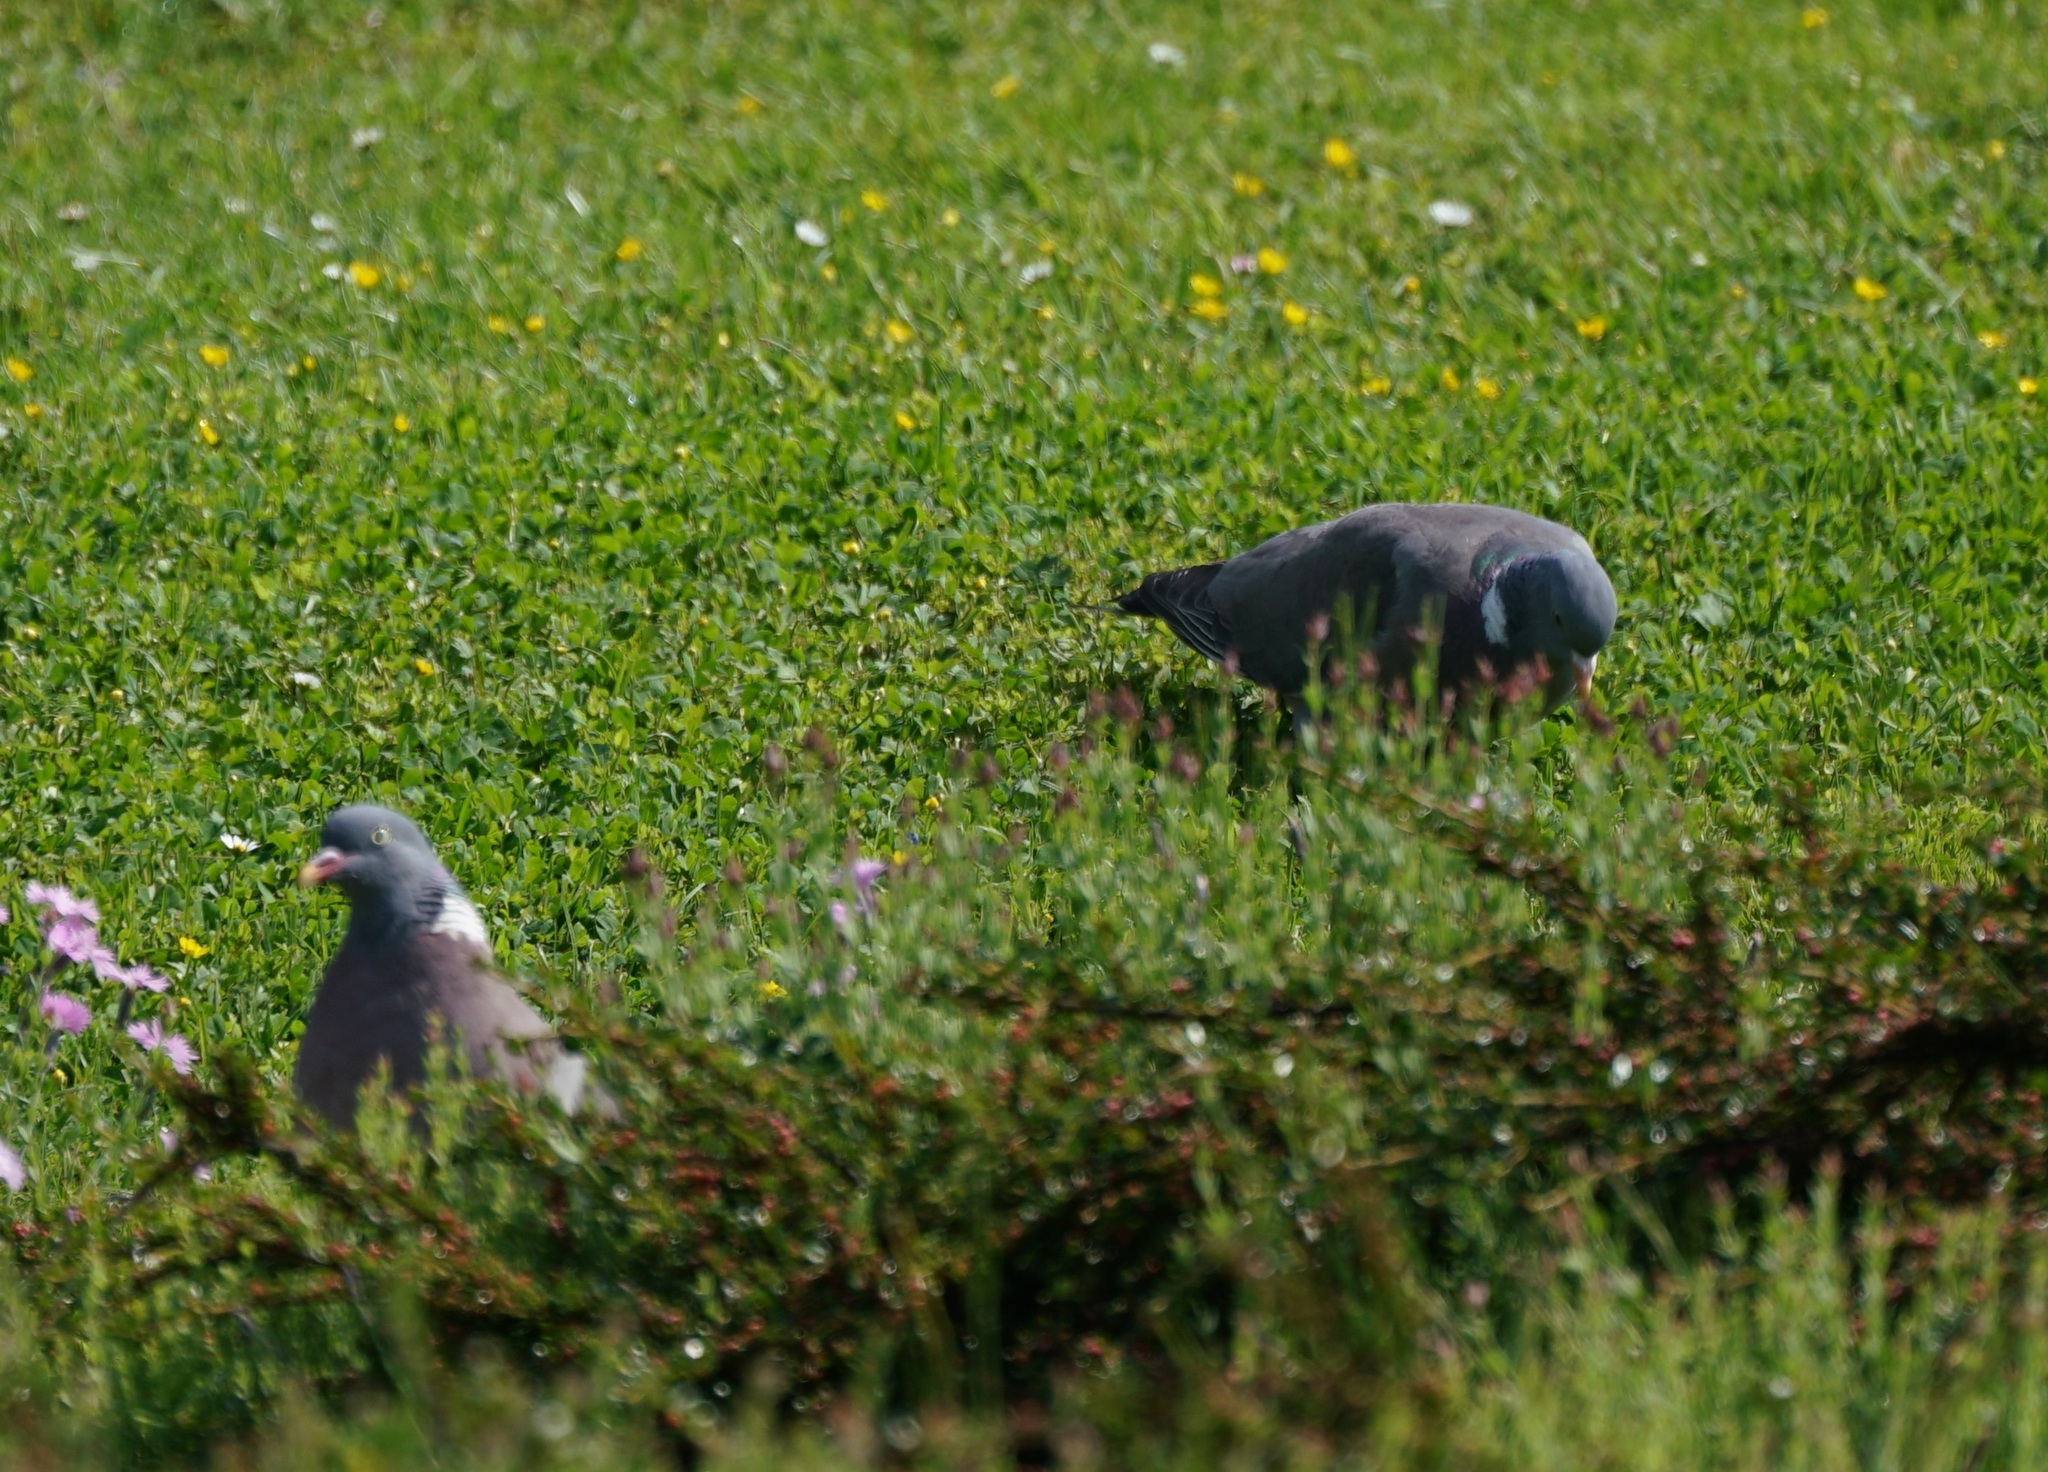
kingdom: Animalia
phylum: Chordata
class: Aves
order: Columbiformes
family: Columbidae
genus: Columba
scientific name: Columba palumbus
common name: Common wood pigeon
